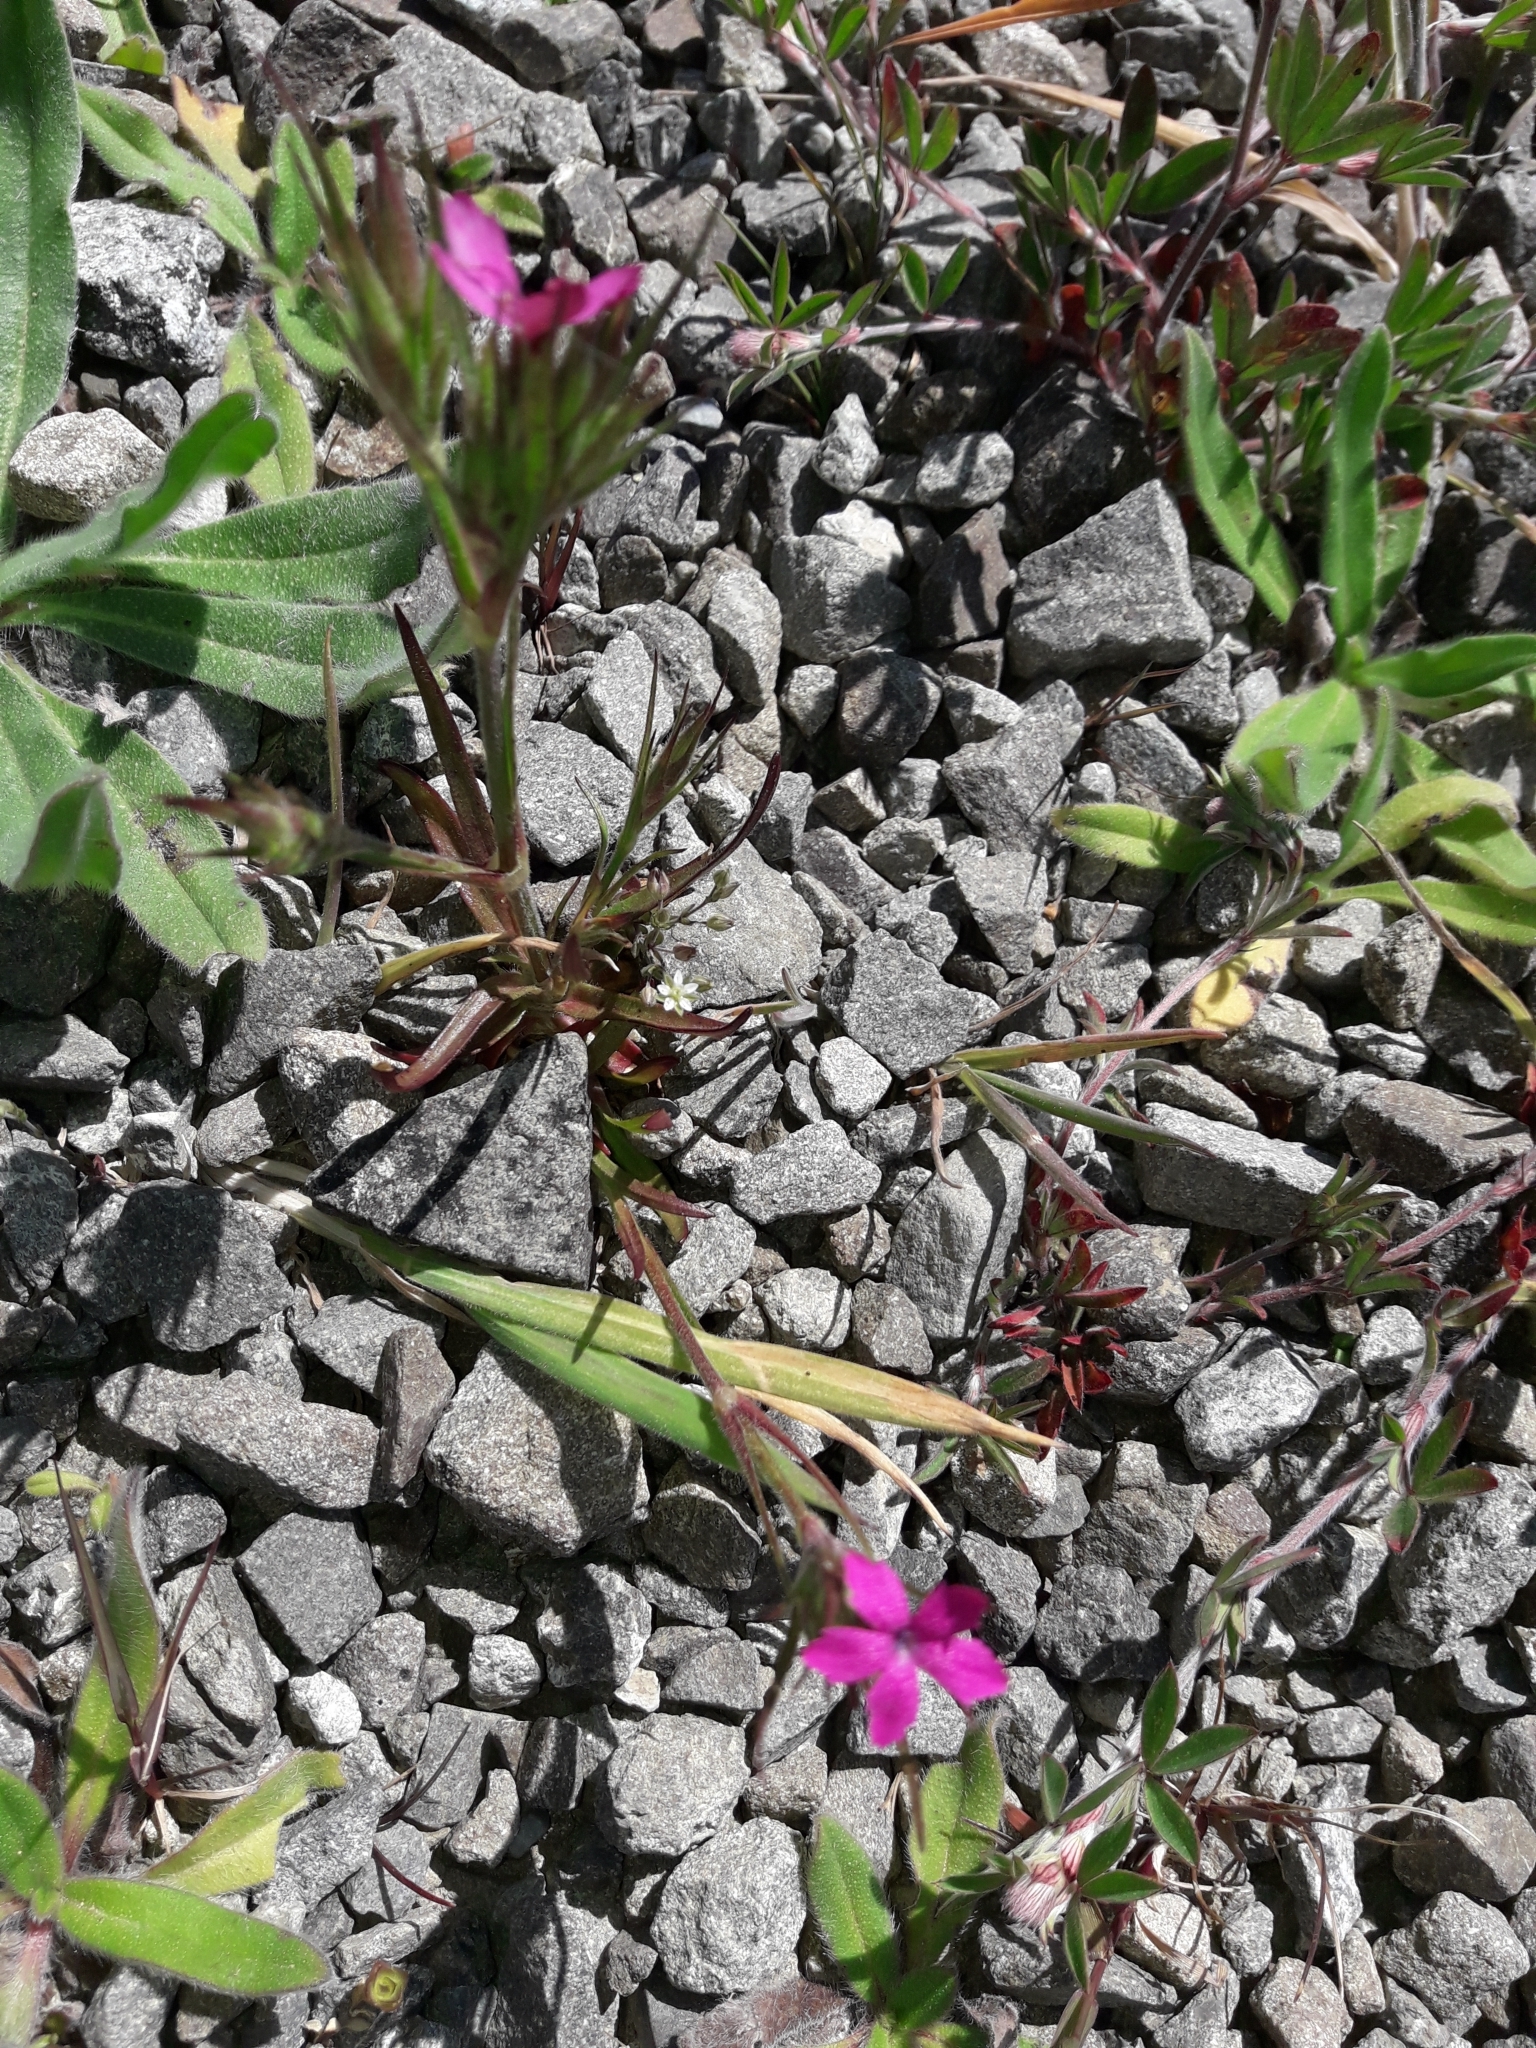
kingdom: Plantae
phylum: Tracheophyta
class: Magnoliopsida
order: Caryophyllales
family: Caryophyllaceae
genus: Dianthus
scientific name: Dianthus armeria
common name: Deptford pink
